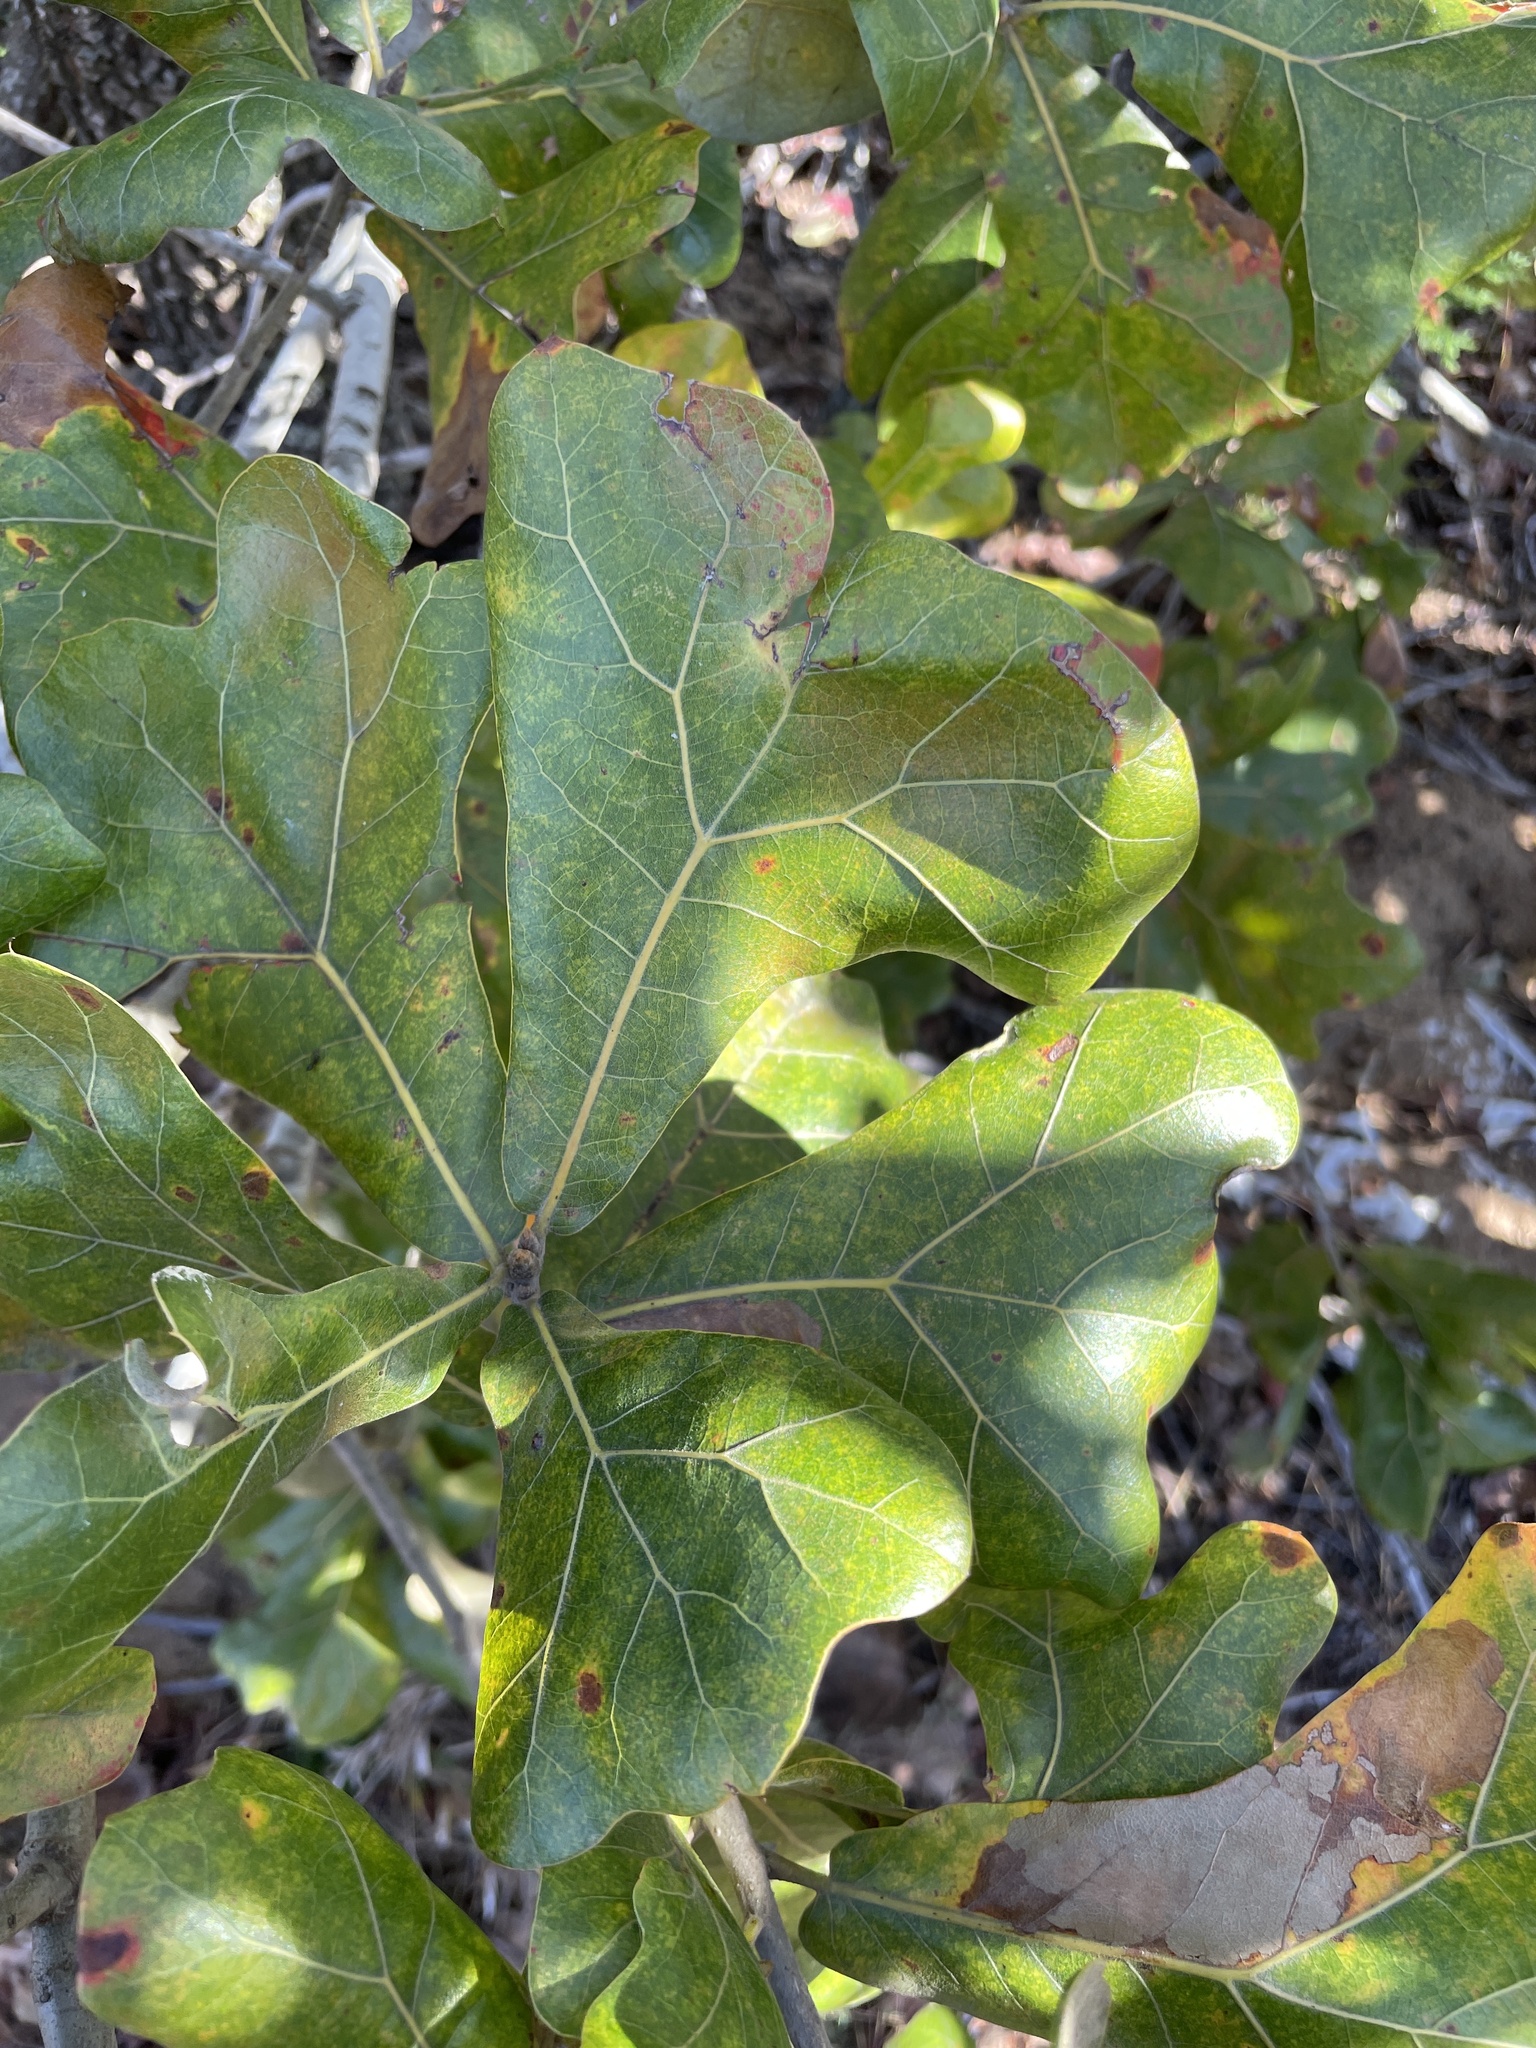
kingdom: Plantae
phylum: Tracheophyta
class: Magnoliopsida
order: Fagales
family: Fagaceae
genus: Quercus
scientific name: Quercus marilandica
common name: Blackjack oak
